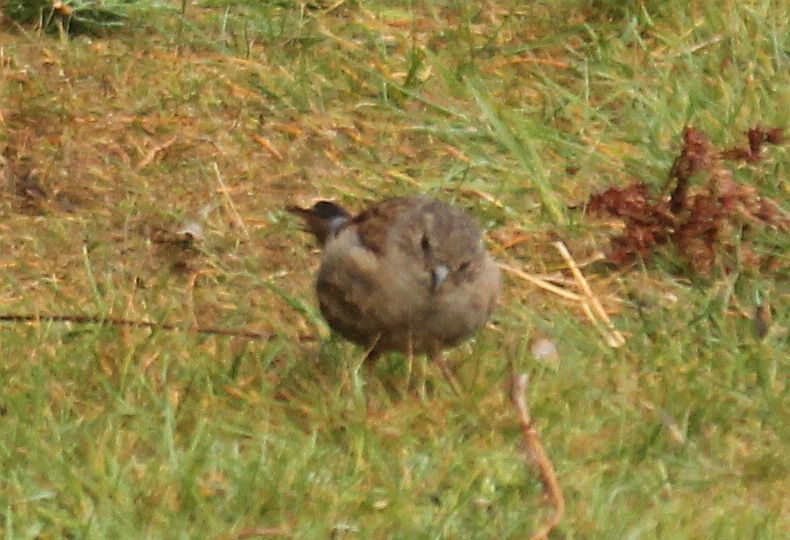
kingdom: Animalia
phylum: Chordata
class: Aves
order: Passeriformes
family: Prunellidae
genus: Prunella
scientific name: Prunella modularis
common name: Dunnock
